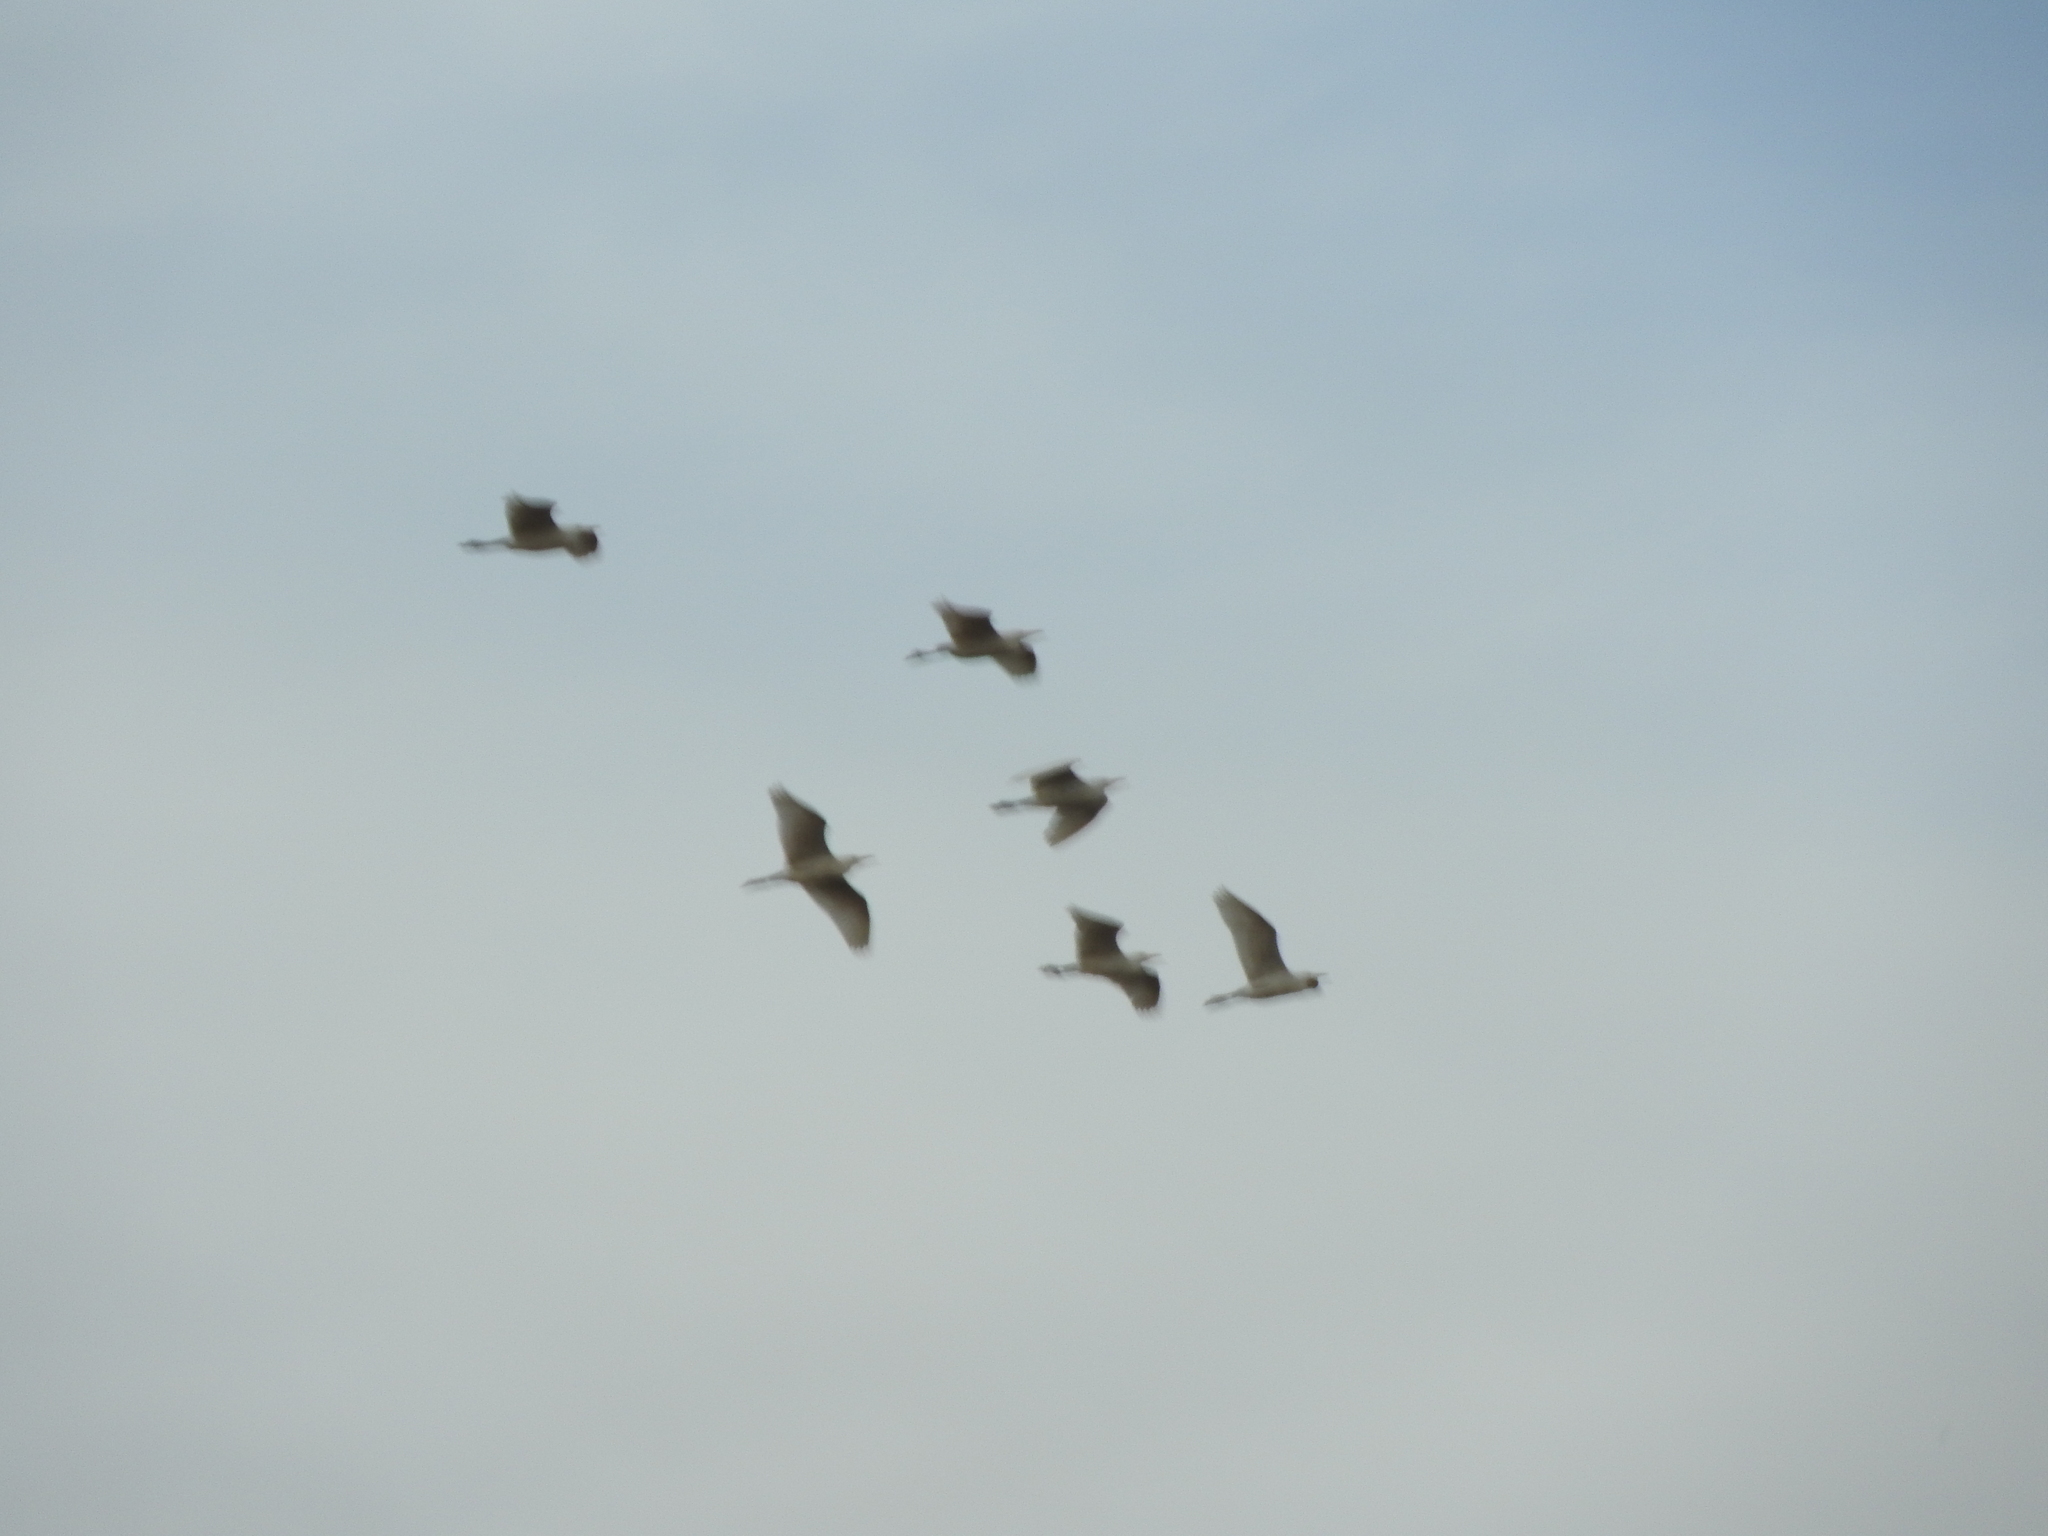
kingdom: Animalia
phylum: Chordata
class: Aves
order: Pelecaniformes
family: Ardeidae
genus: Bubulcus
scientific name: Bubulcus ibis
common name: Cattle egret
